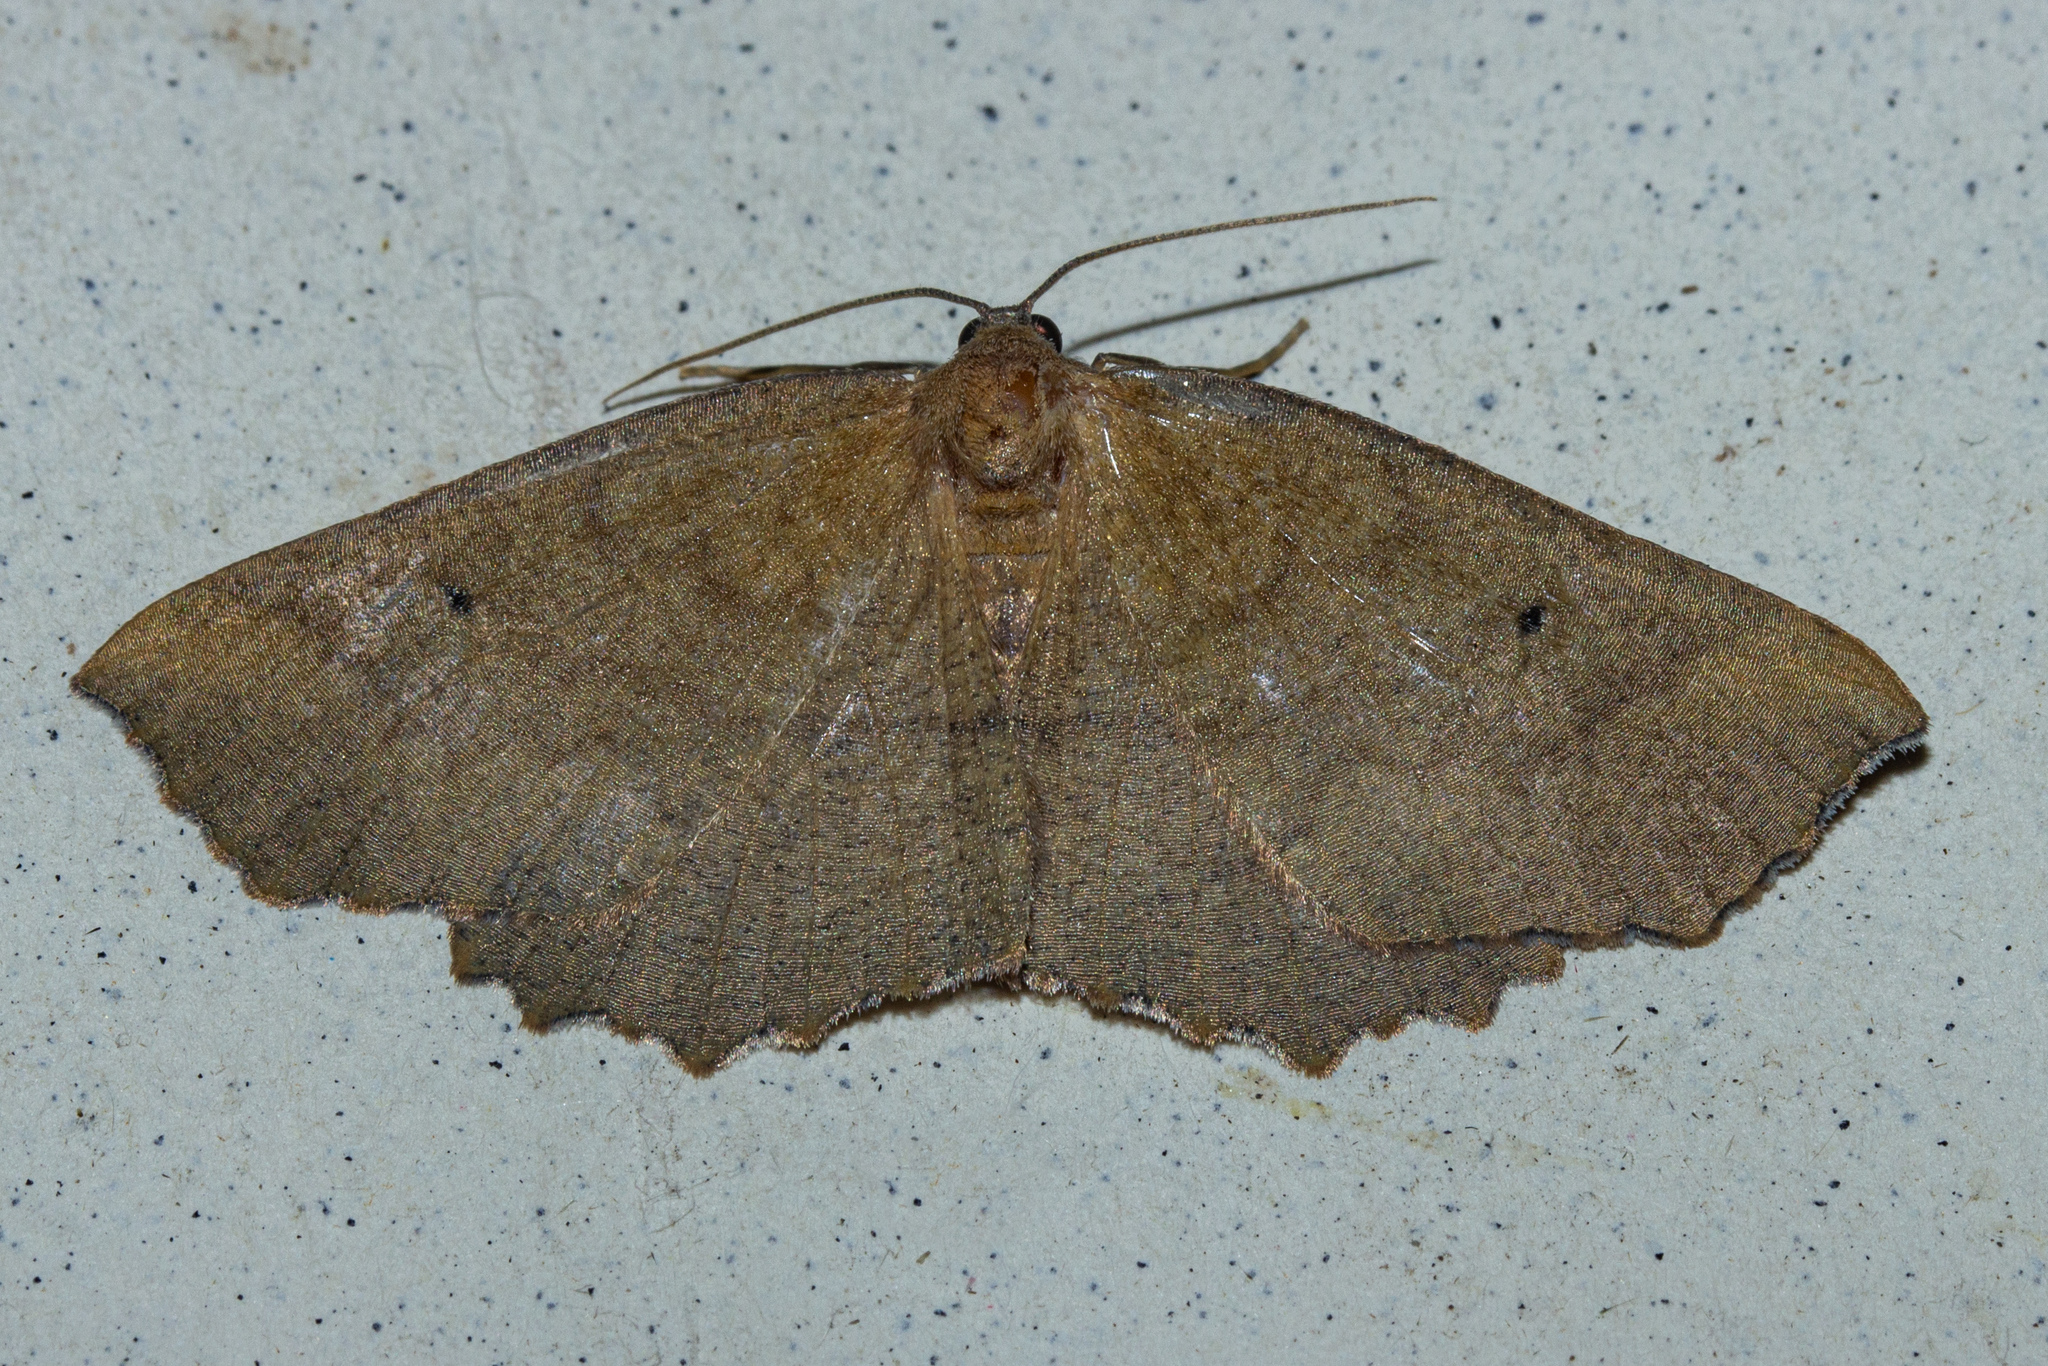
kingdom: Animalia
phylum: Arthropoda
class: Insecta
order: Lepidoptera
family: Geometridae
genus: Xyridacma
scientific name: Xyridacma ustaria
